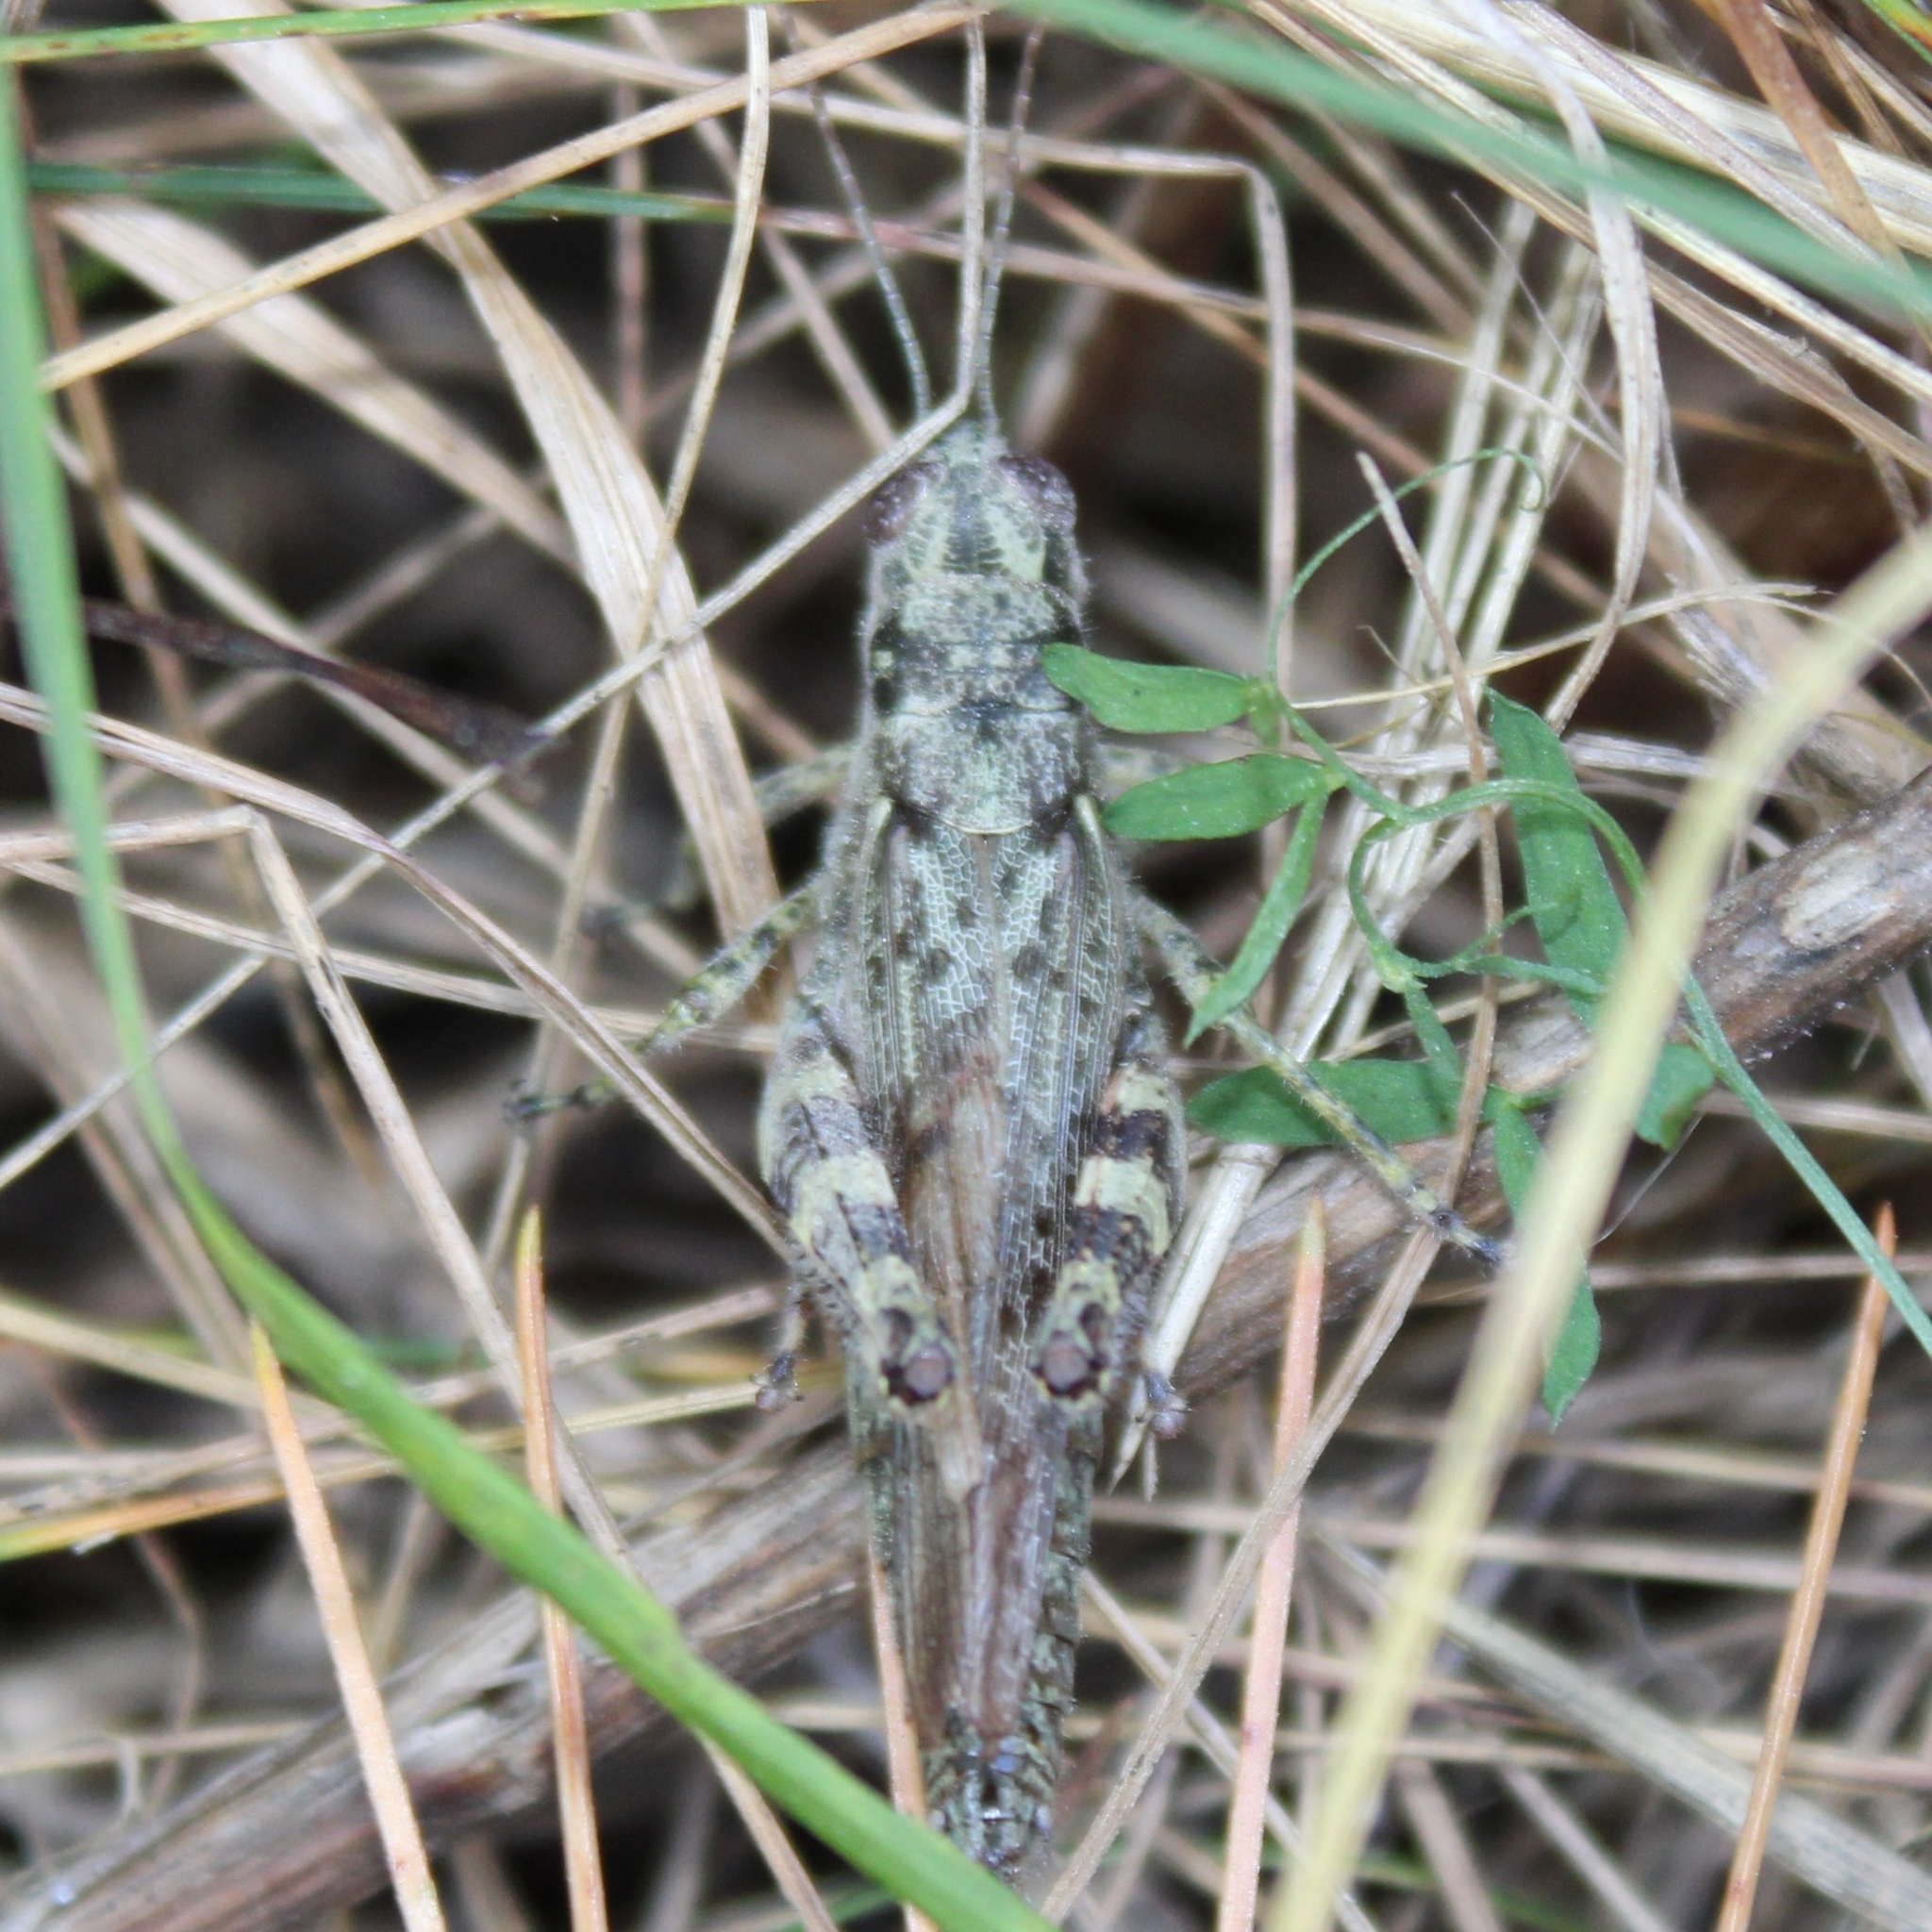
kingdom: Animalia
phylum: Arthropoda
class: Insecta
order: Orthoptera
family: Acrididae
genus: Melanoplus
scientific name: Melanoplus punctulatus
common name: Pine-tree spur-throat grasshopper
